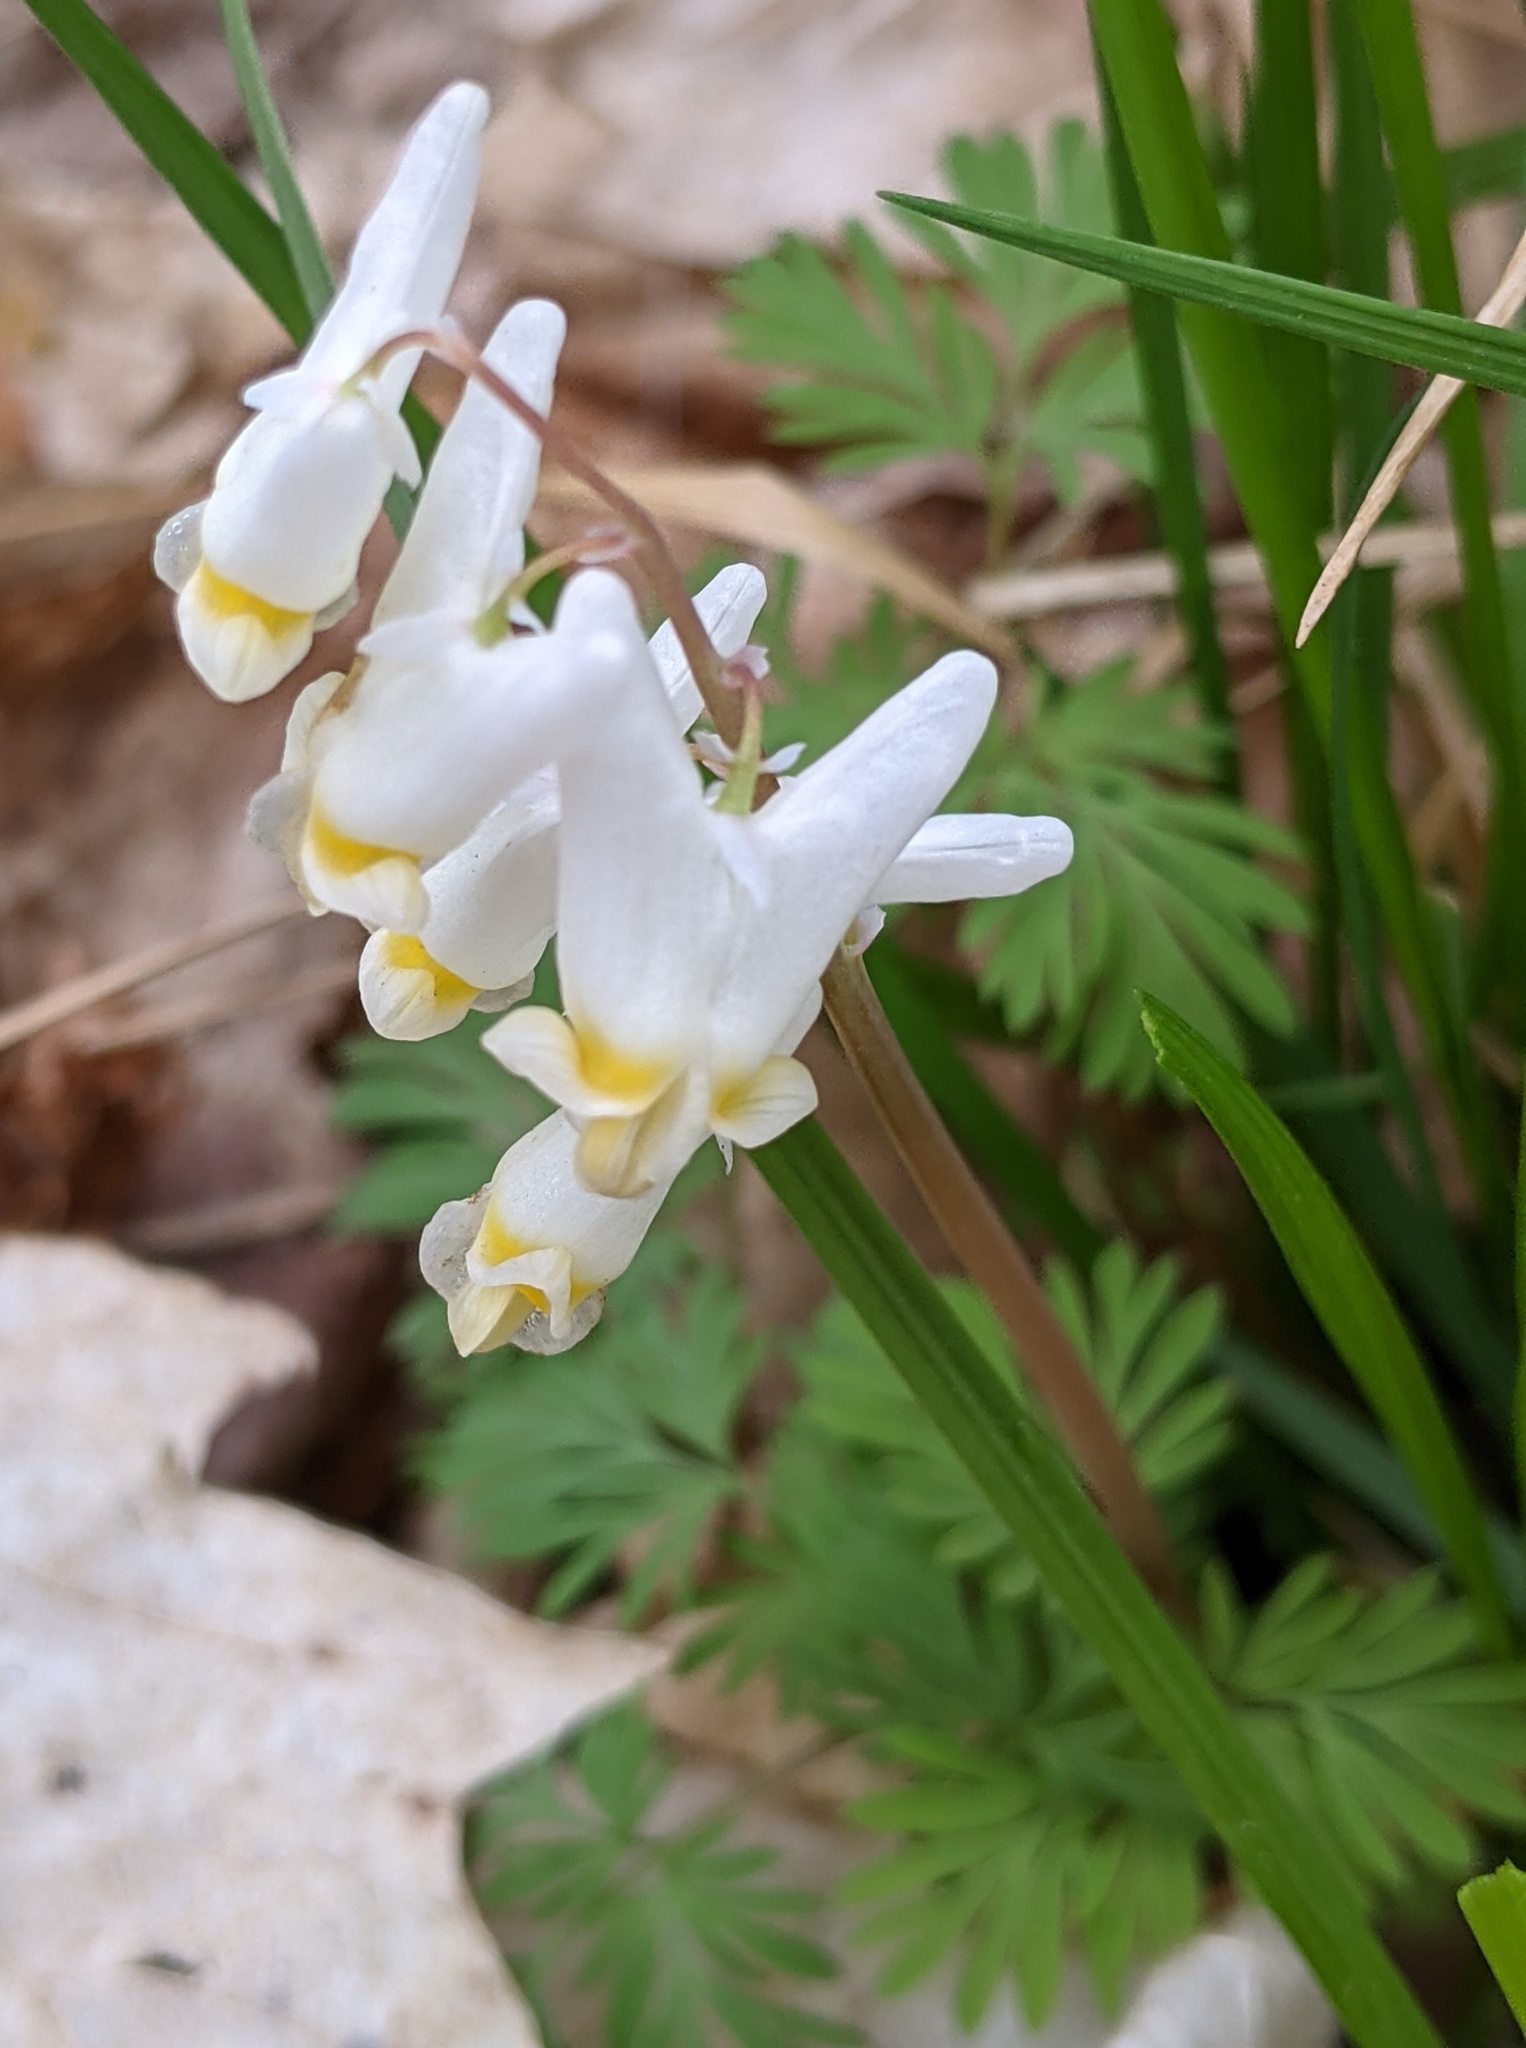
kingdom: Plantae
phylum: Tracheophyta
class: Magnoliopsida
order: Ranunculales
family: Papaveraceae
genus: Dicentra
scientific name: Dicentra cucullaria
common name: Dutchman's breeches
